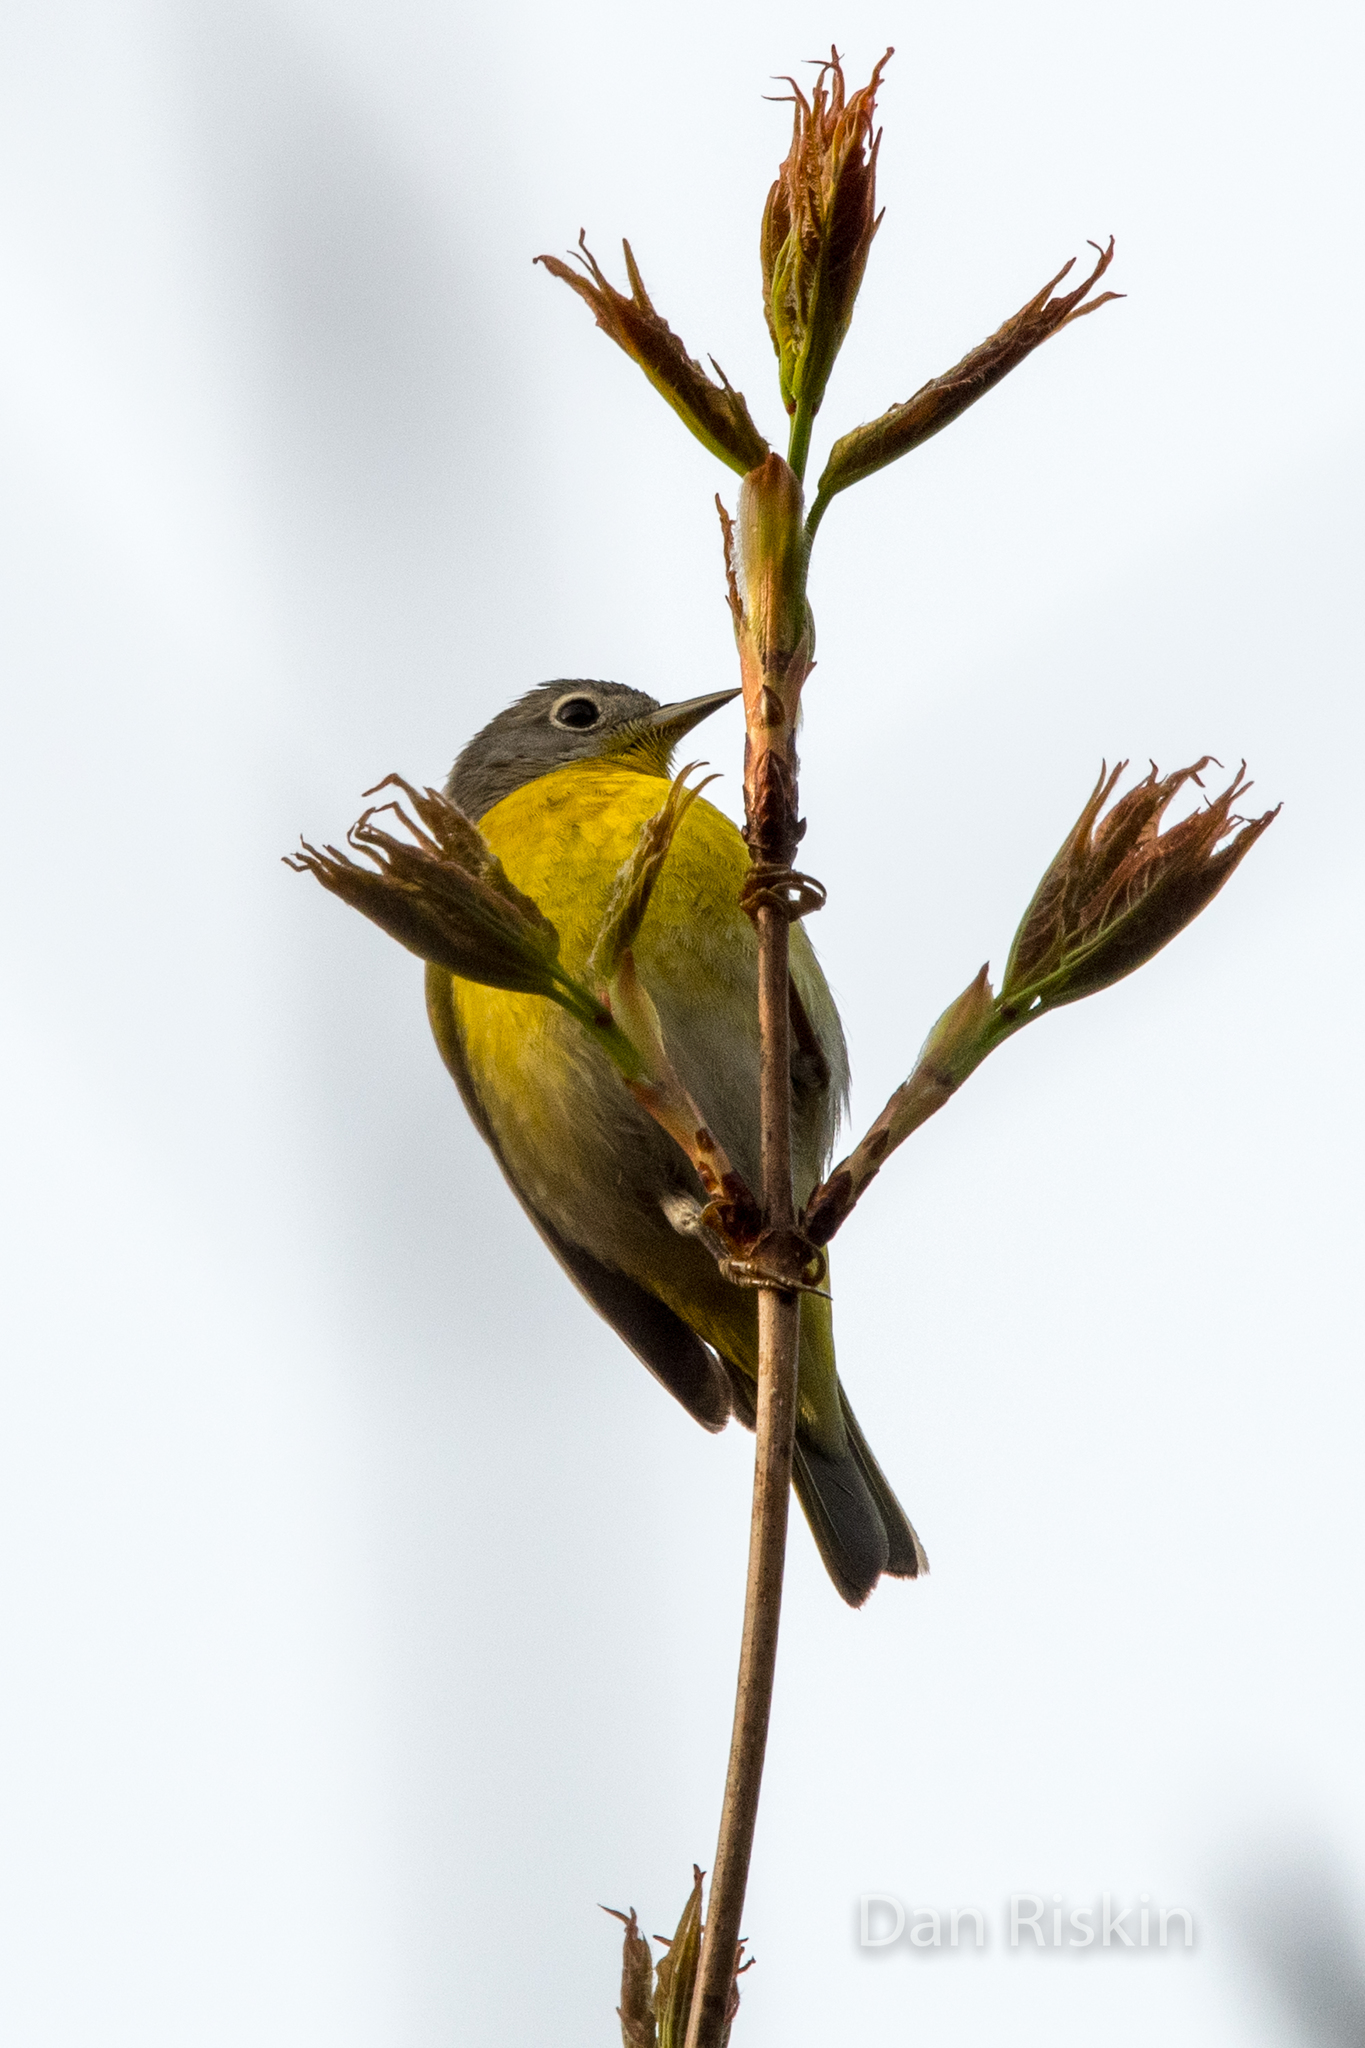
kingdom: Animalia
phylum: Chordata
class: Aves
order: Passeriformes
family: Parulidae
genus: Leiothlypis
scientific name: Leiothlypis ruficapilla
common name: Nashville warbler
